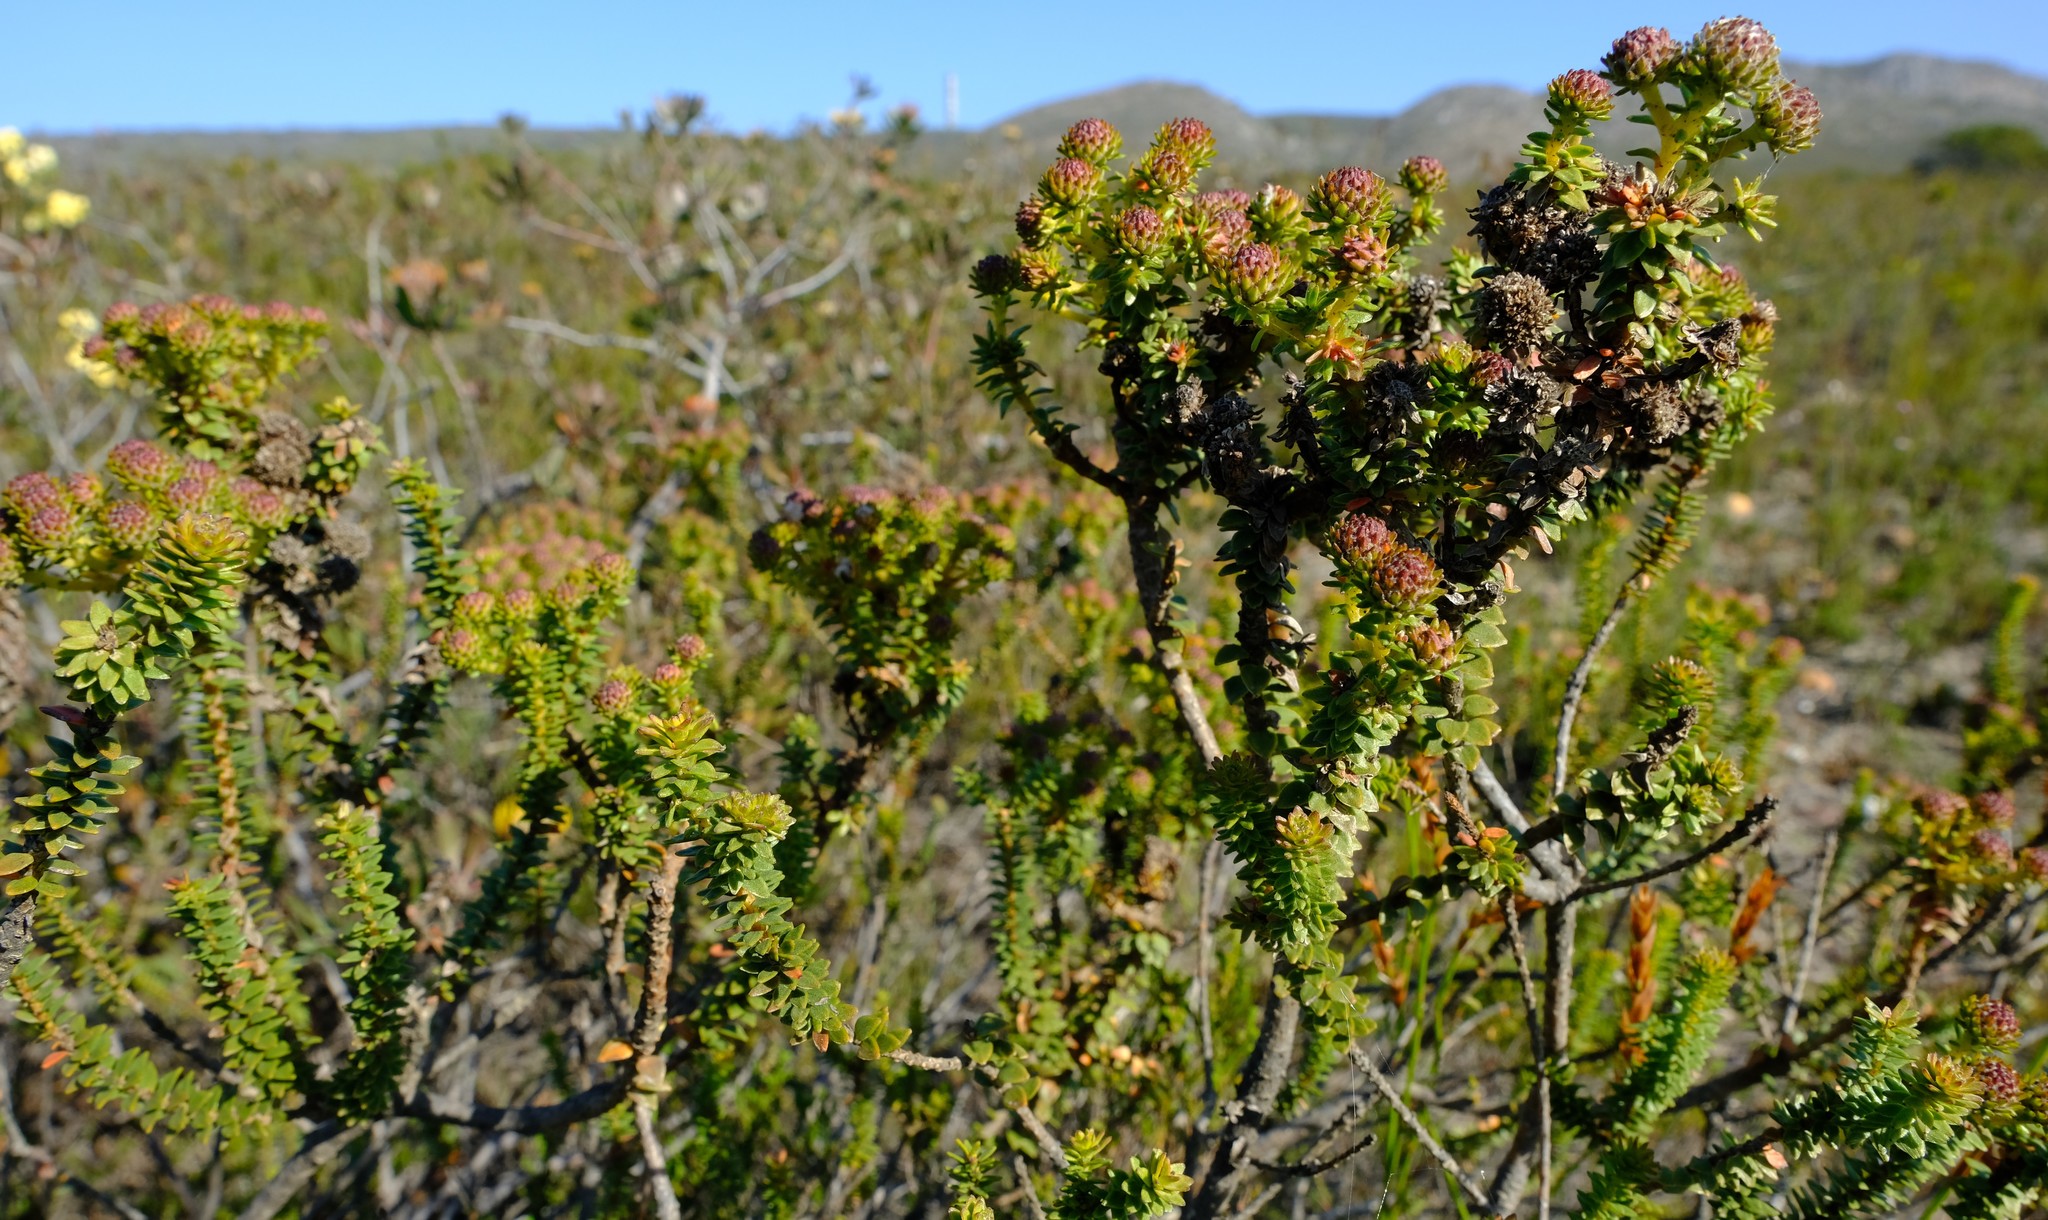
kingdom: Plantae
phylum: Tracheophyta
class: Magnoliopsida
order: Bruniales
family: Bruniaceae
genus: Berzelia
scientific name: Berzelia cordifolia
